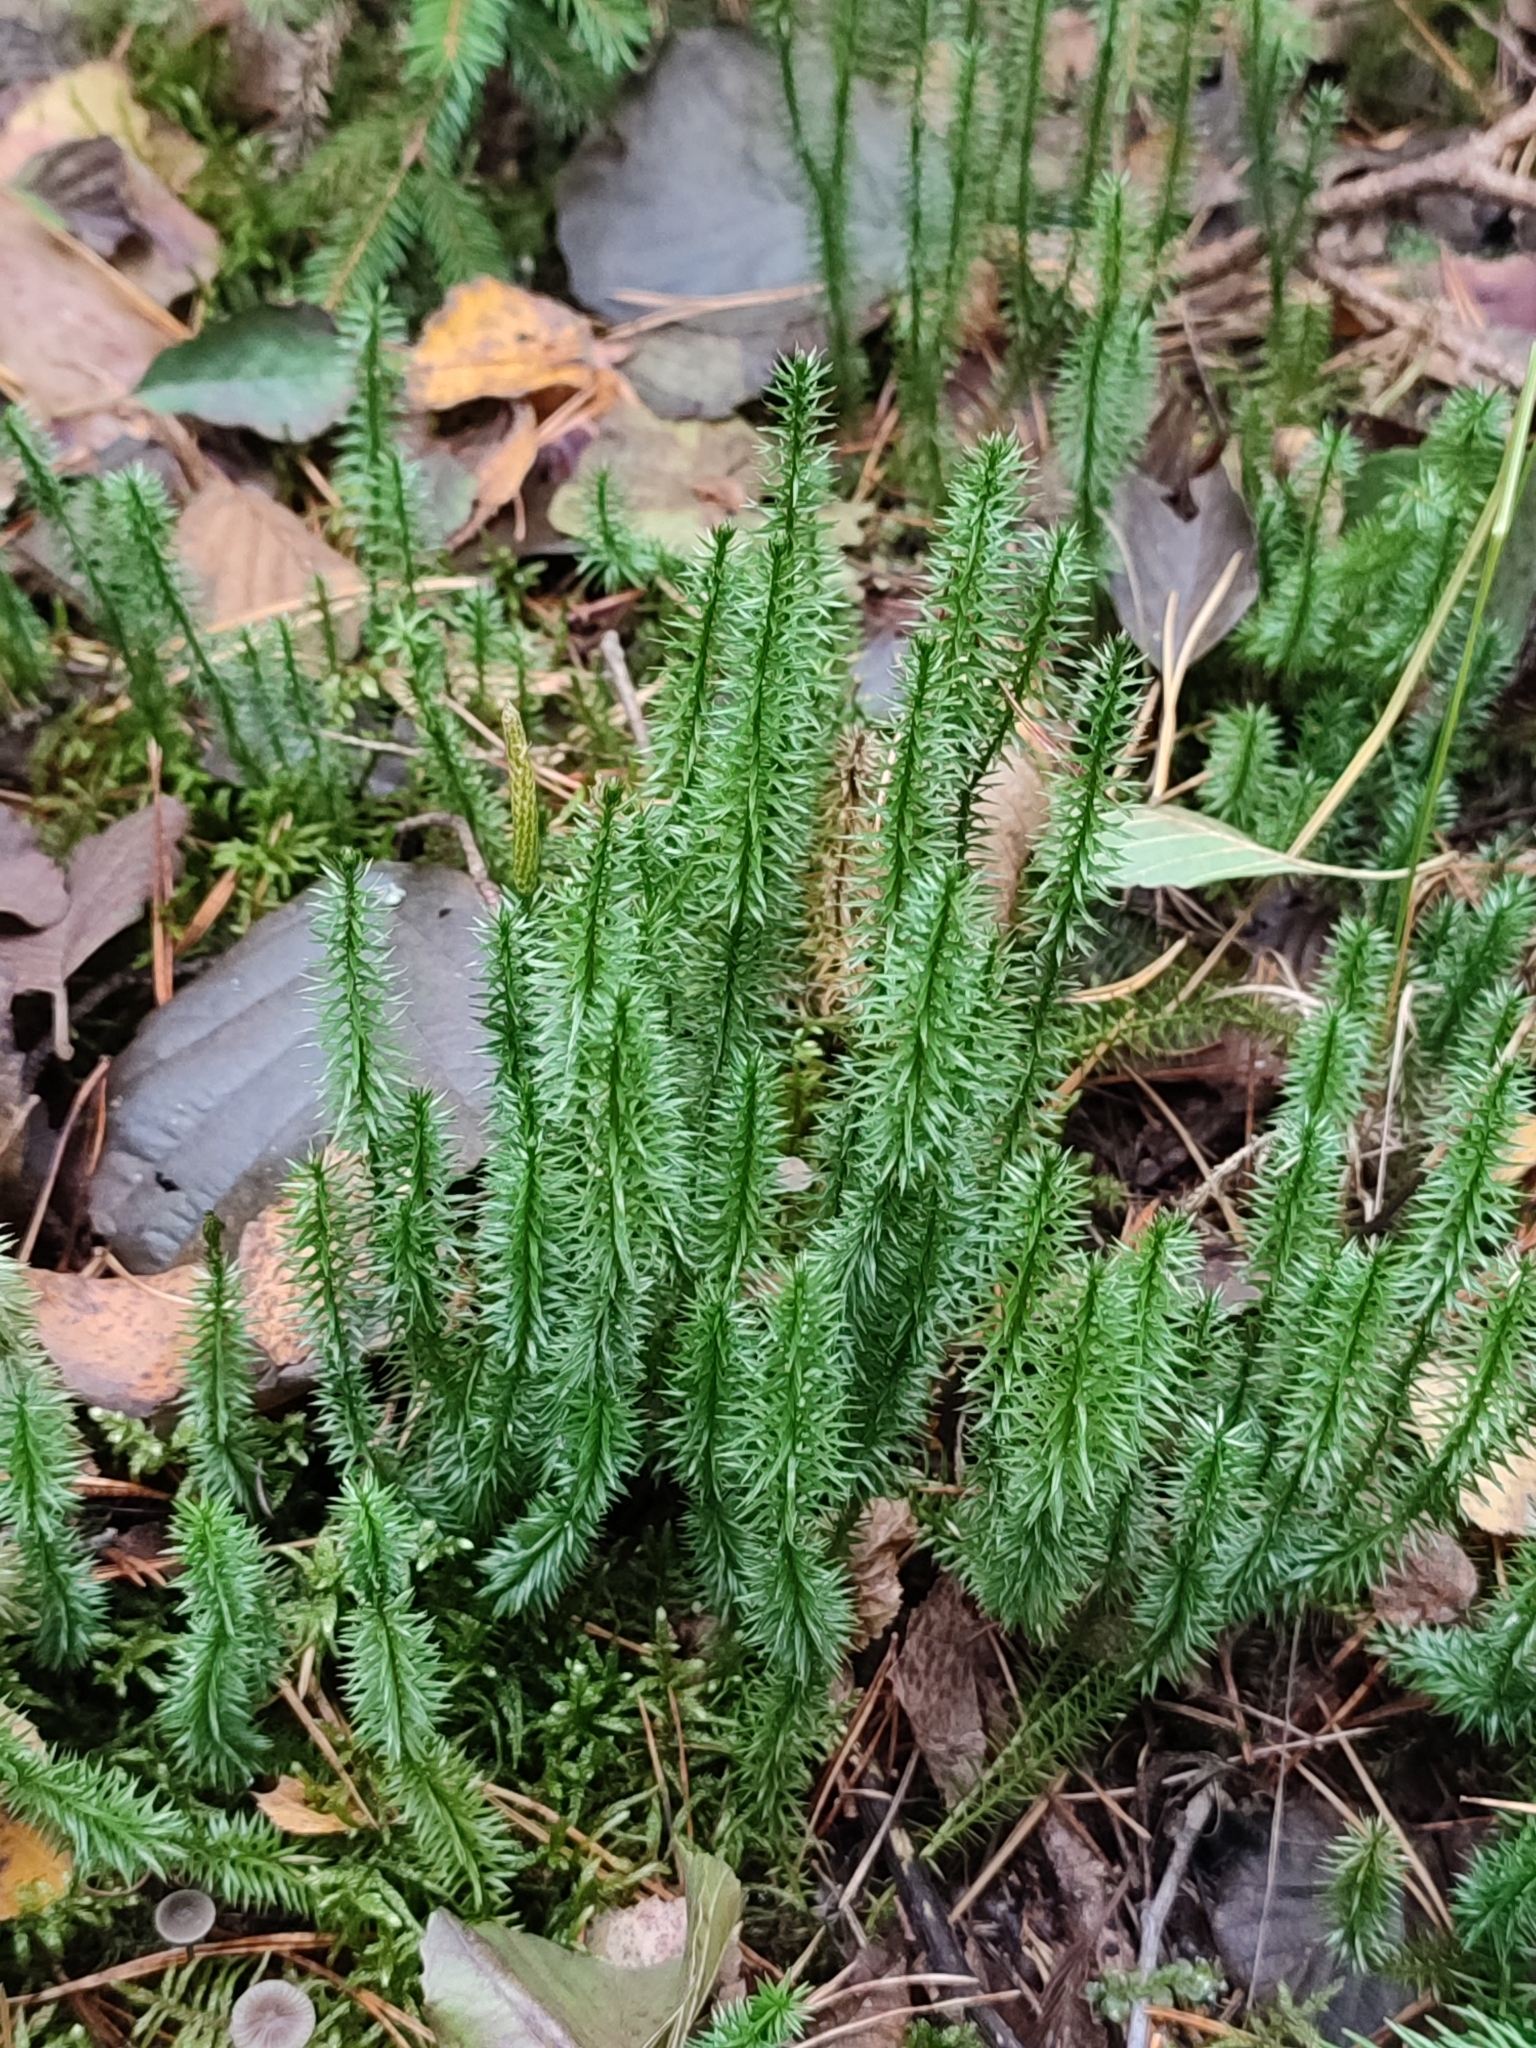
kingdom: Plantae
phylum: Tracheophyta
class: Lycopodiopsida
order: Lycopodiales
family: Lycopodiaceae
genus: Spinulum
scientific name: Spinulum annotinum
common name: Interrupted club-moss
